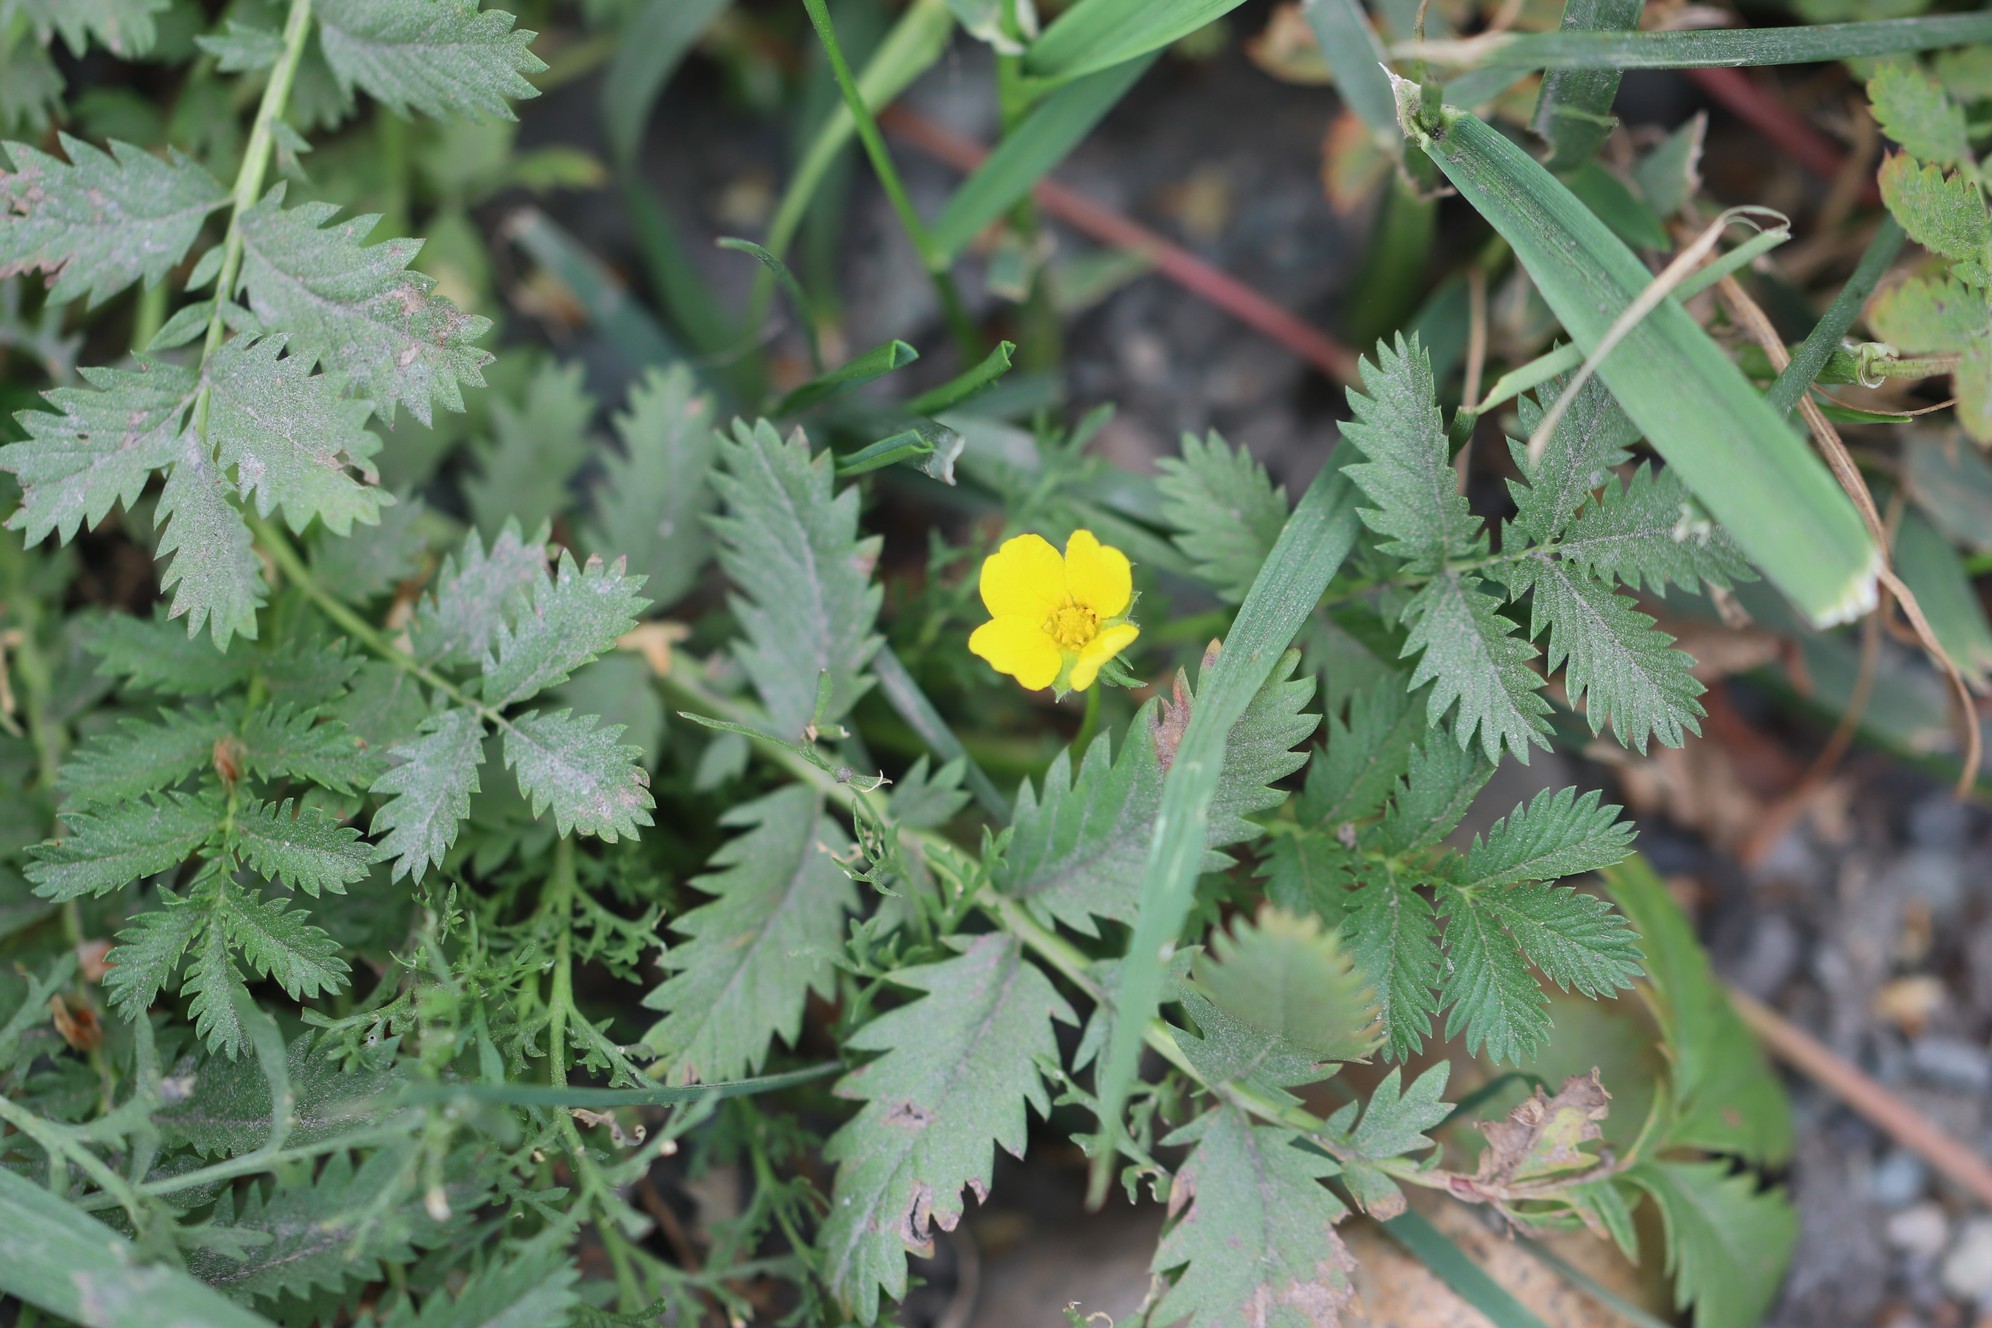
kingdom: Plantae
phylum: Tracheophyta
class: Magnoliopsida
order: Rosales
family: Rosaceae
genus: Argentina
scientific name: Argentina anserina
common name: Common silverweed
